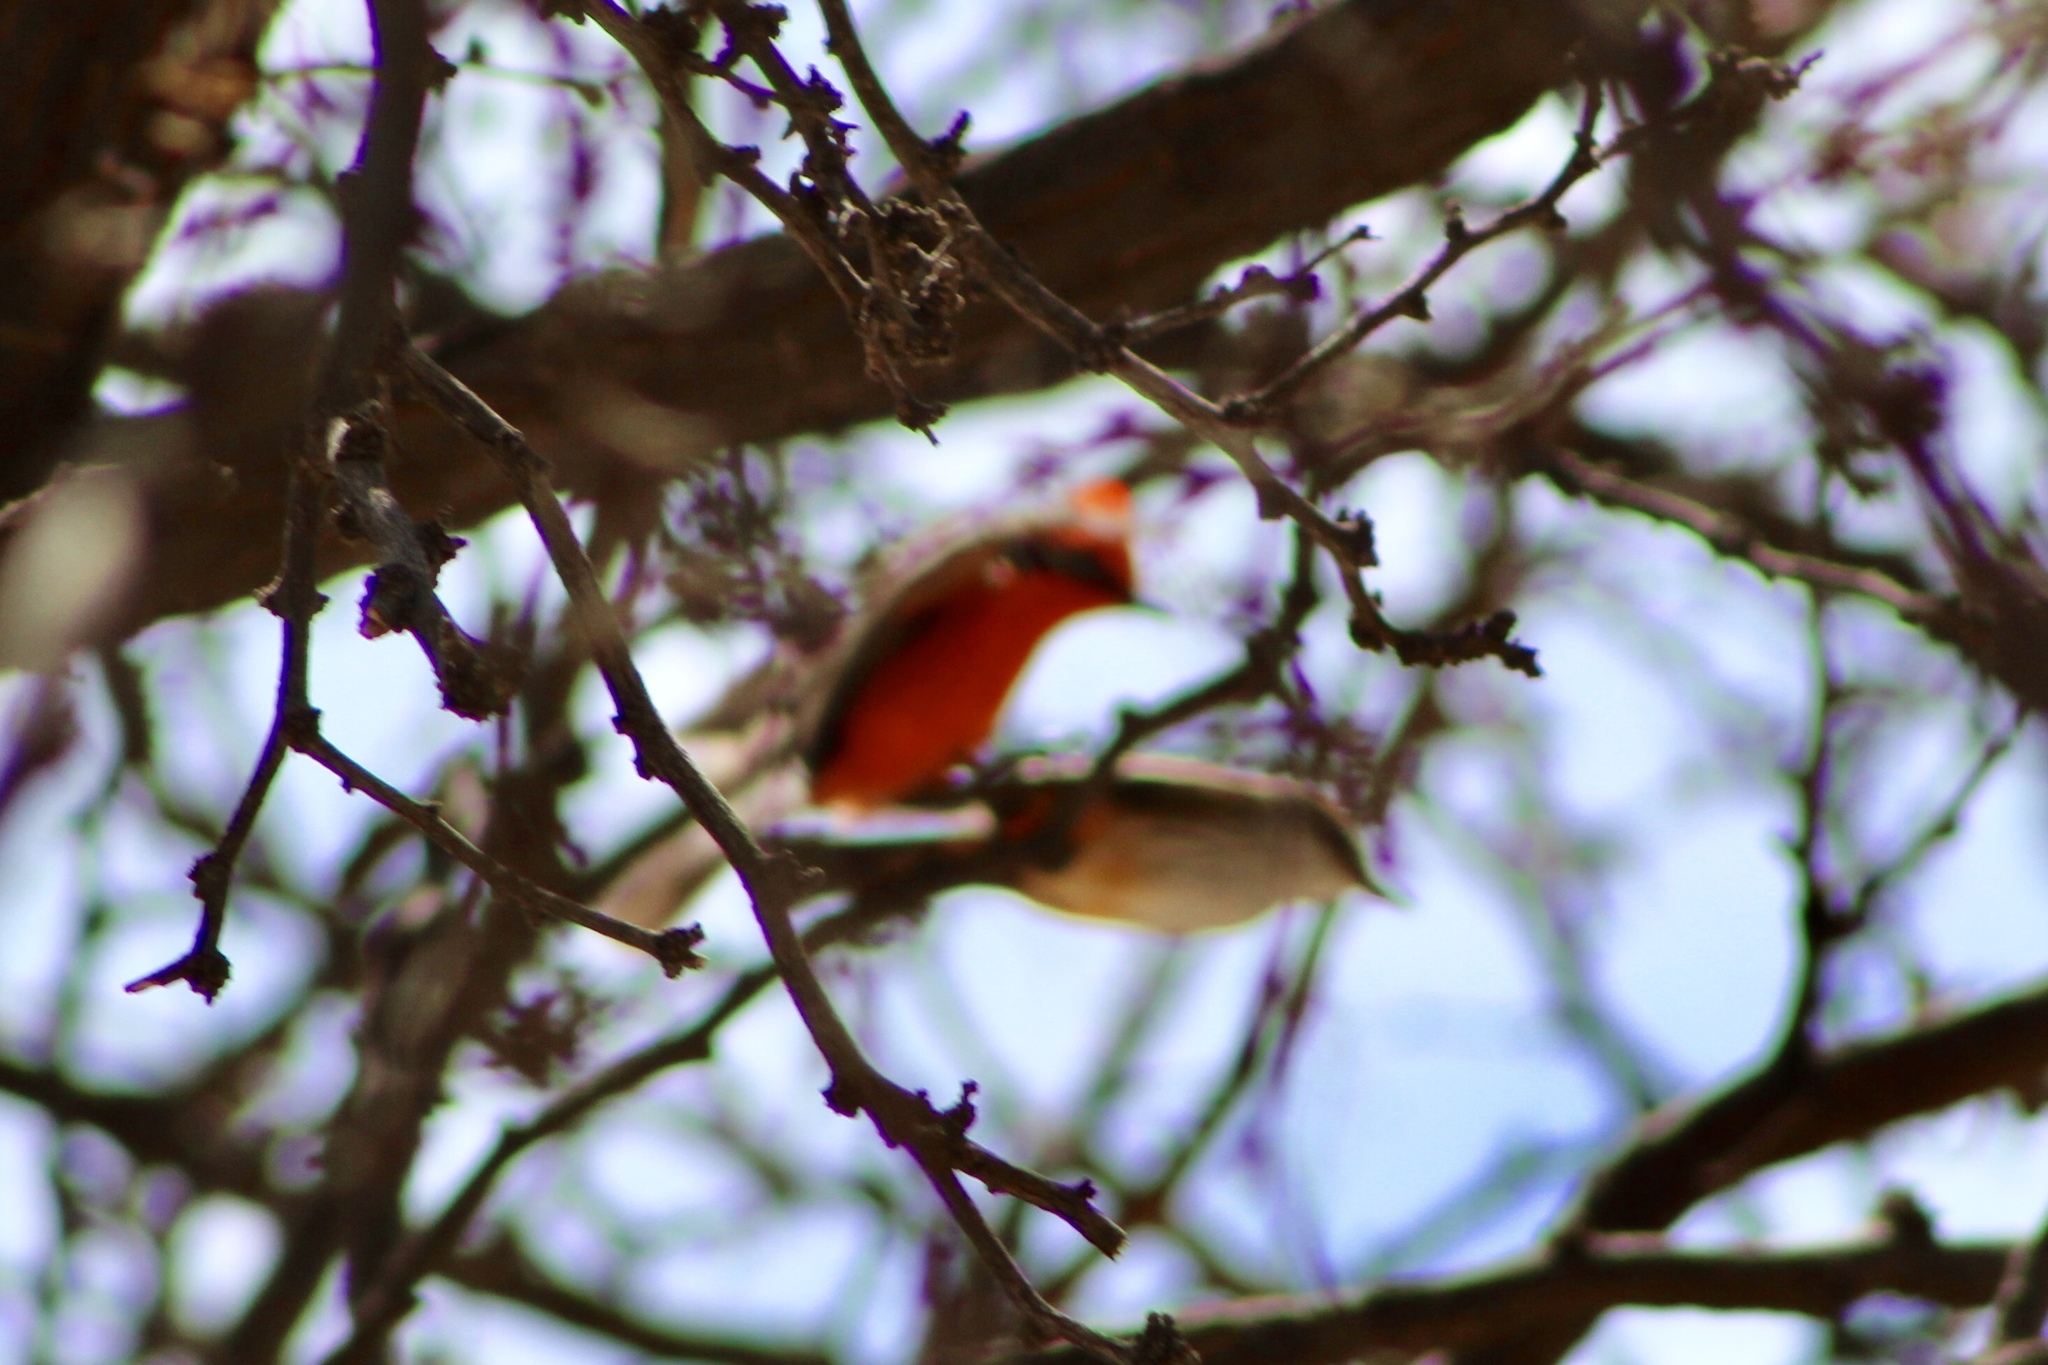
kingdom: Animalia
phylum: Chordata
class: Aves
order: Passeriformes
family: Tyrannidae
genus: Pyrocephalus
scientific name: Pyrocephalus rubinus
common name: Vermilion flycatcher
